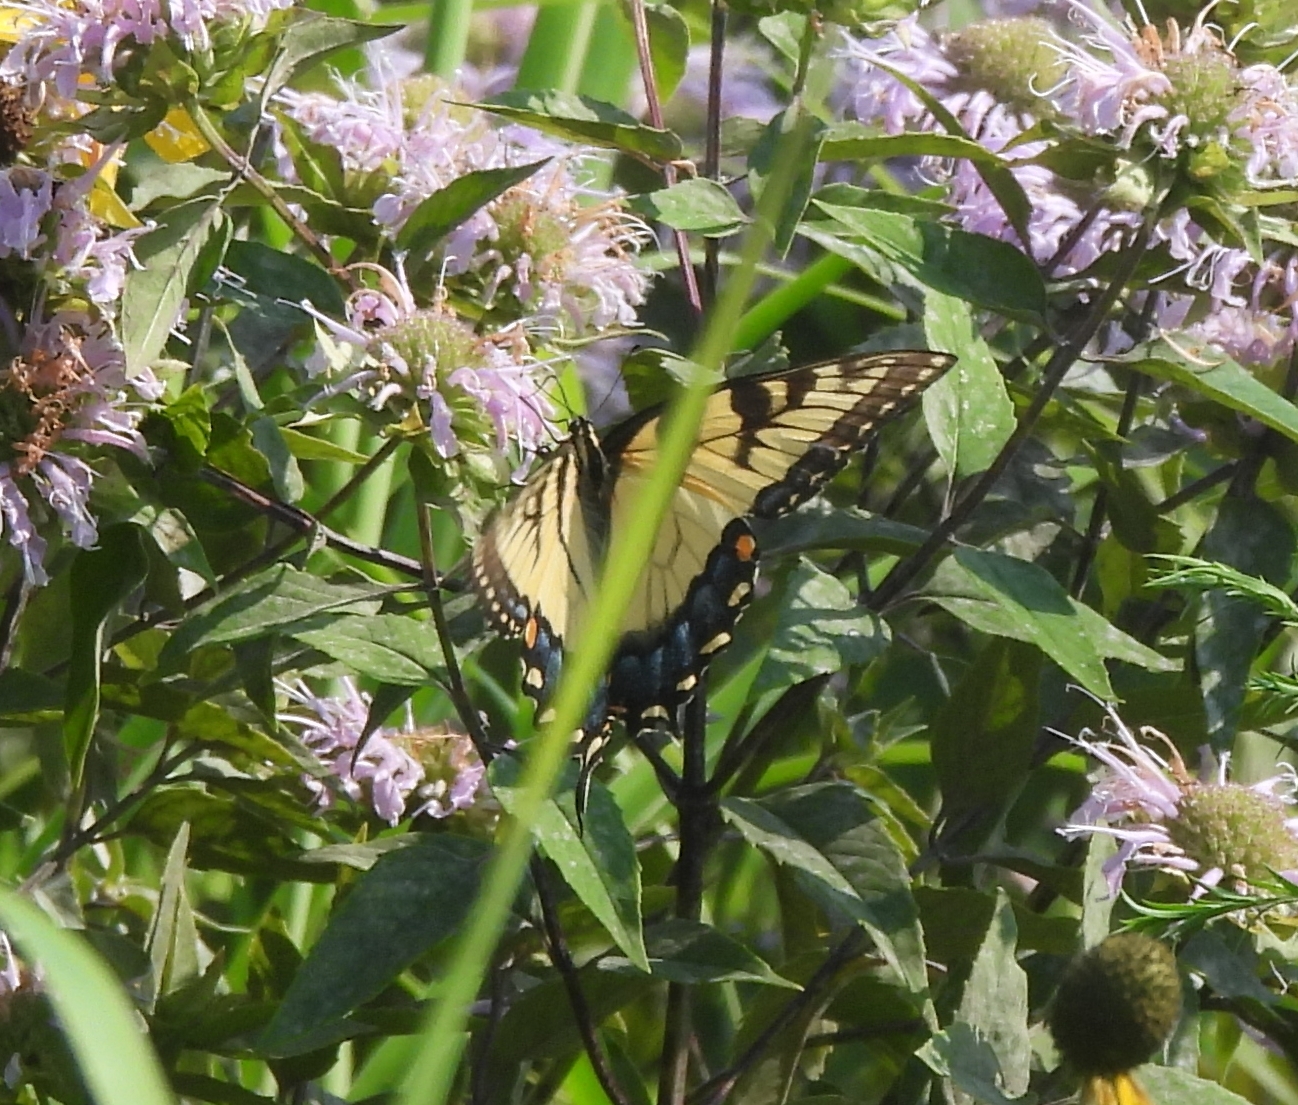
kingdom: Animalia
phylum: Arthropoda
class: Insecta
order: Lepidoptera
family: Papilionidae
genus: Papilio
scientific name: Papilio glaucus
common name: Tiger swallowtail
